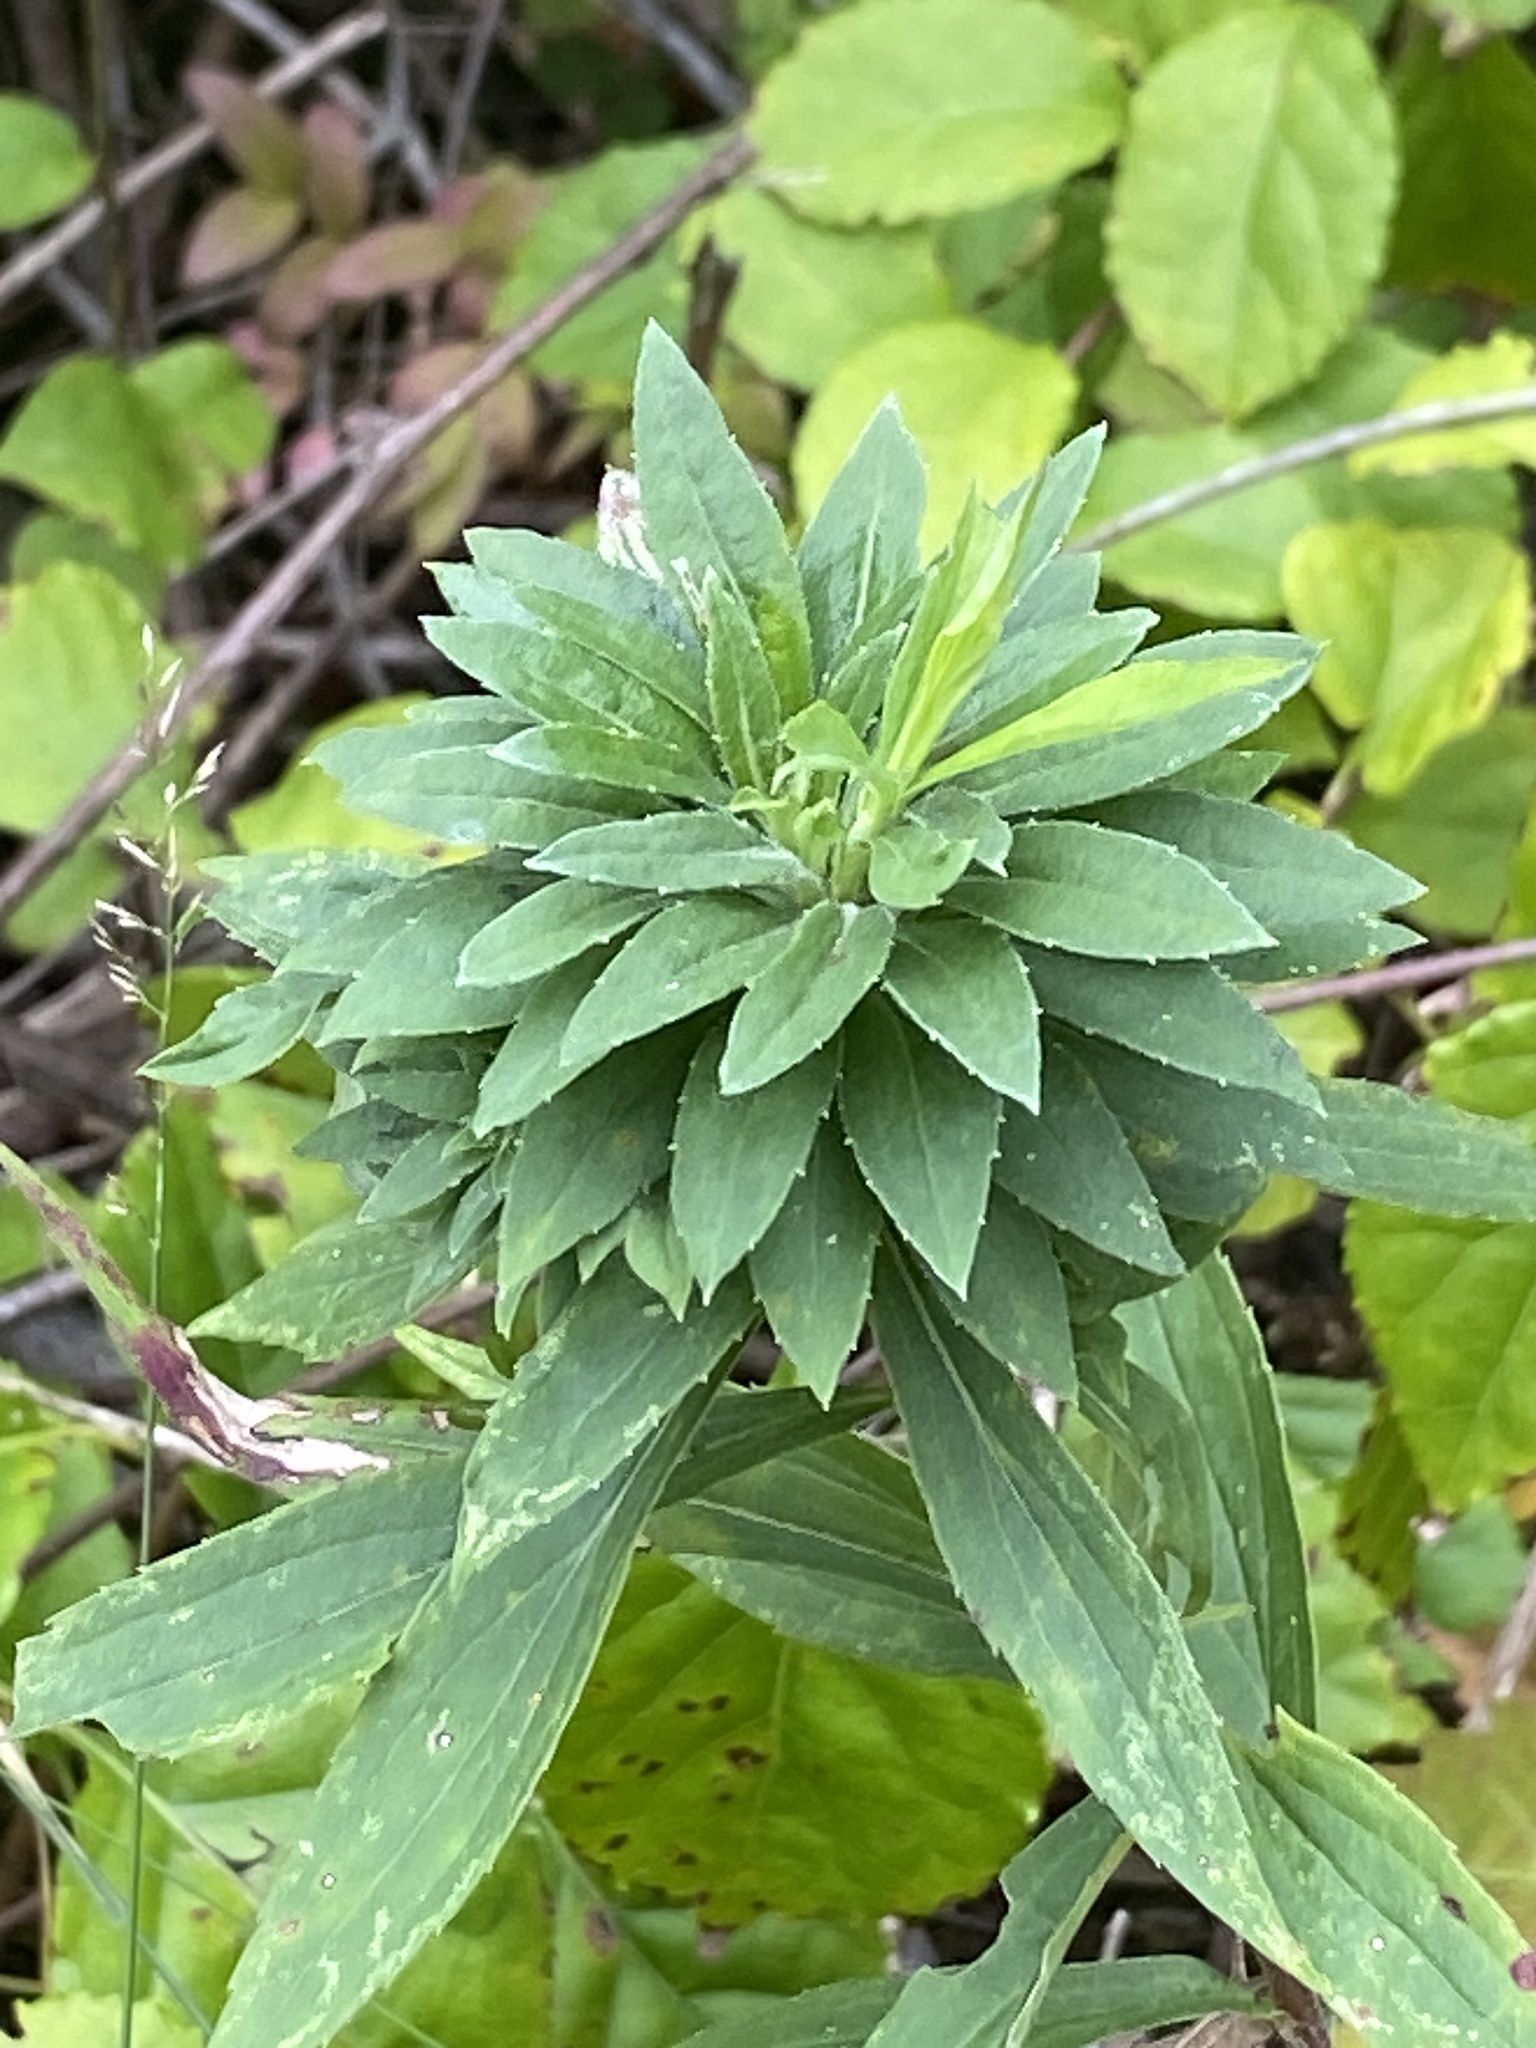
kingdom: Animalia
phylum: Arthropoda
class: Insecta
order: Diptera
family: Tephritidae
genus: Procecidochares
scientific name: Procecidochares atra
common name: Goldenrod brussels sprout gall fly
